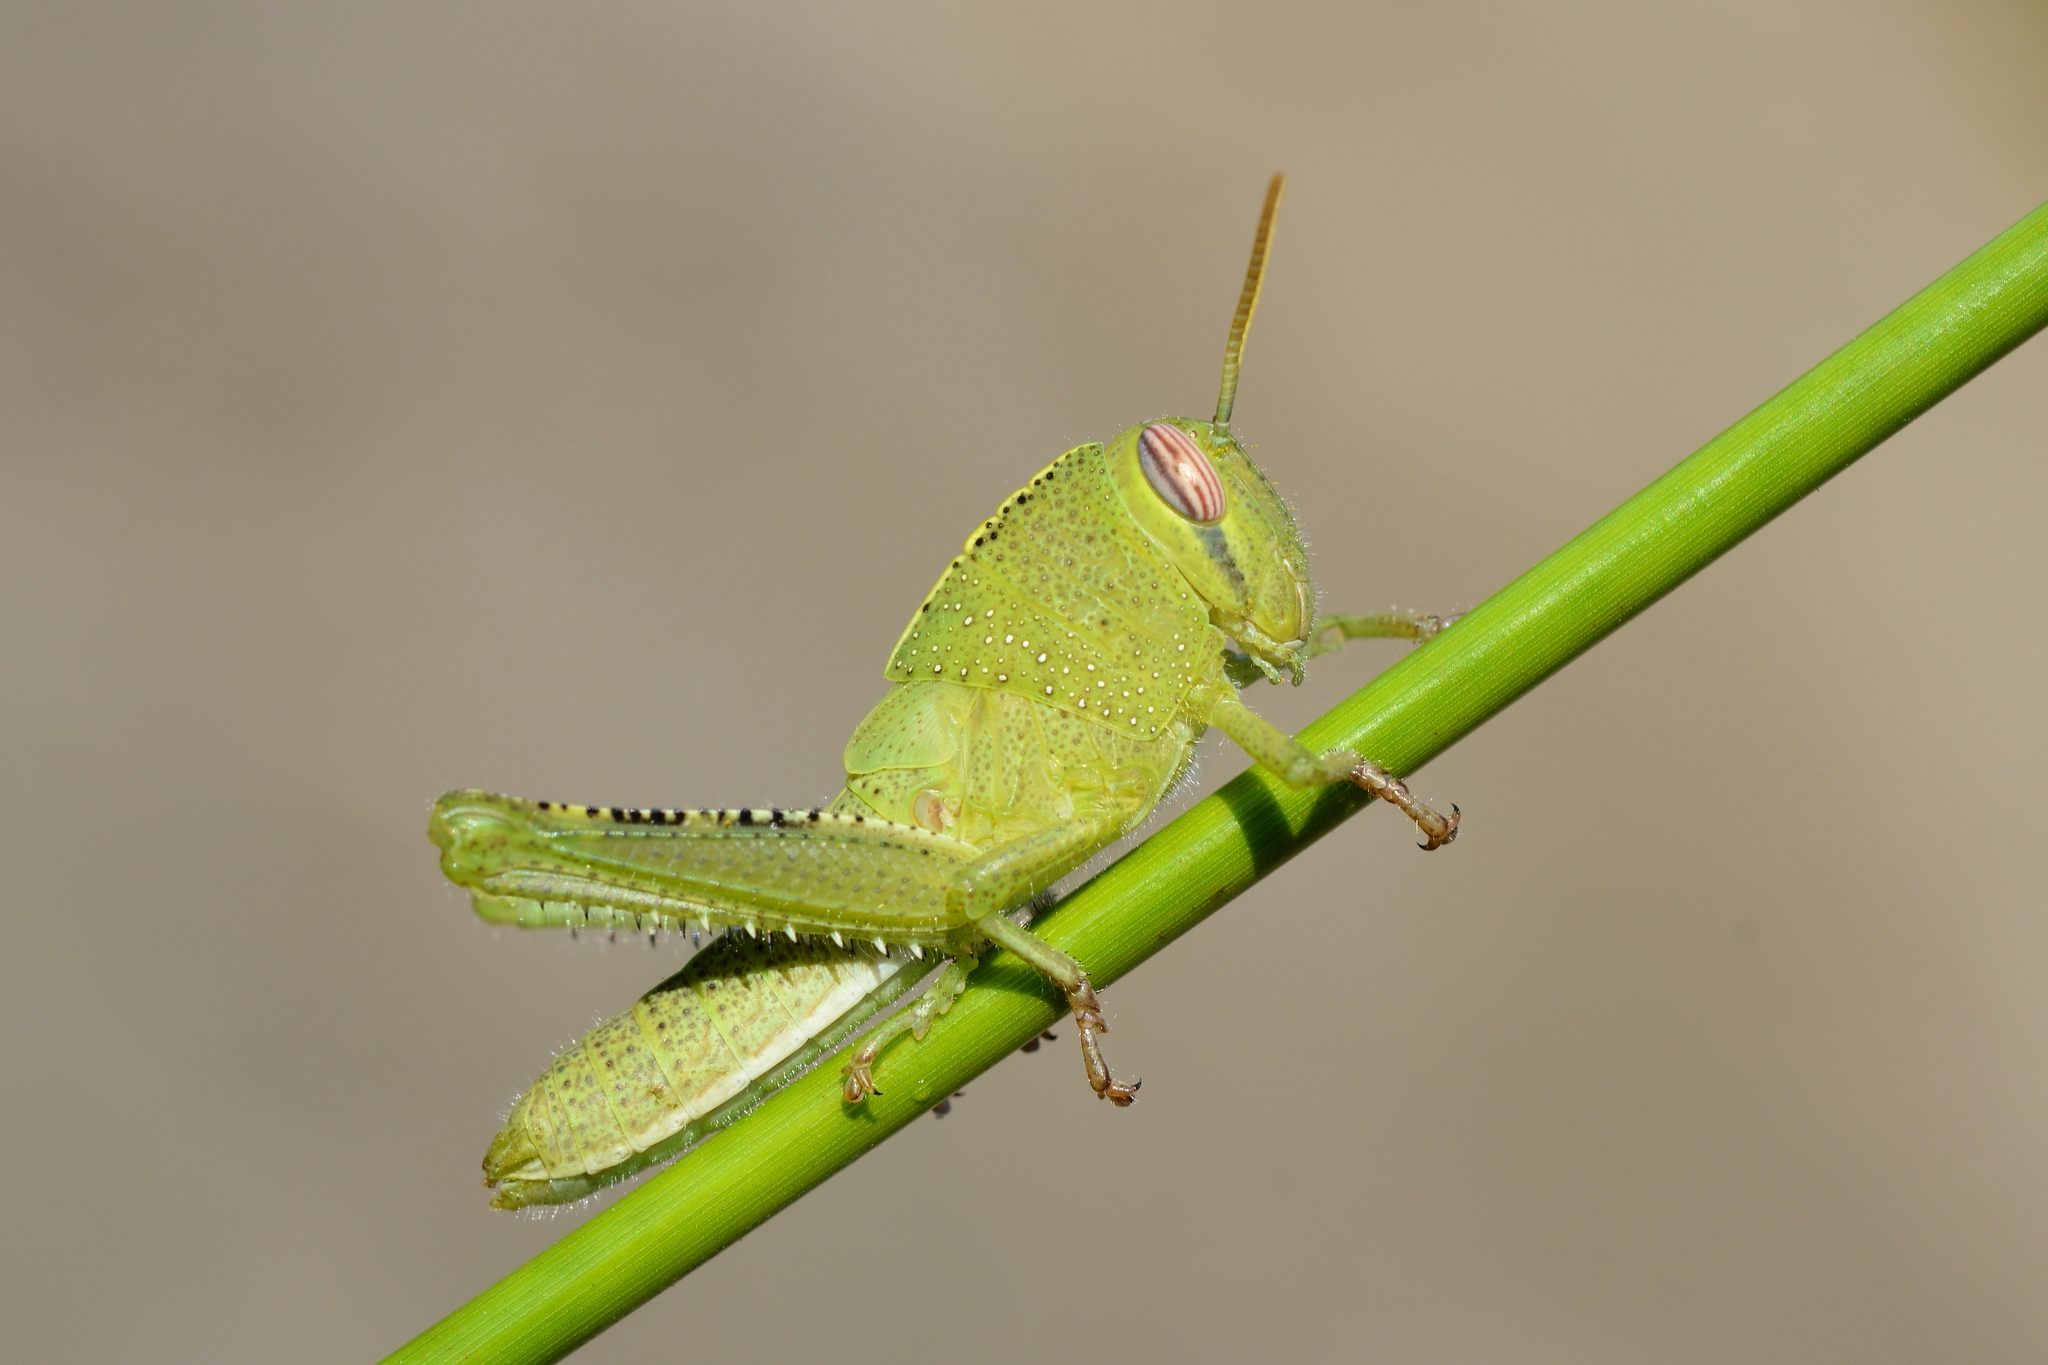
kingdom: Animalia
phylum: Arthropoda
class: Insecta
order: Orthoptera
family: Acrididae
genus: Anacridium
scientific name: Anacridium aegyptium
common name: Egyptian grasshopper
